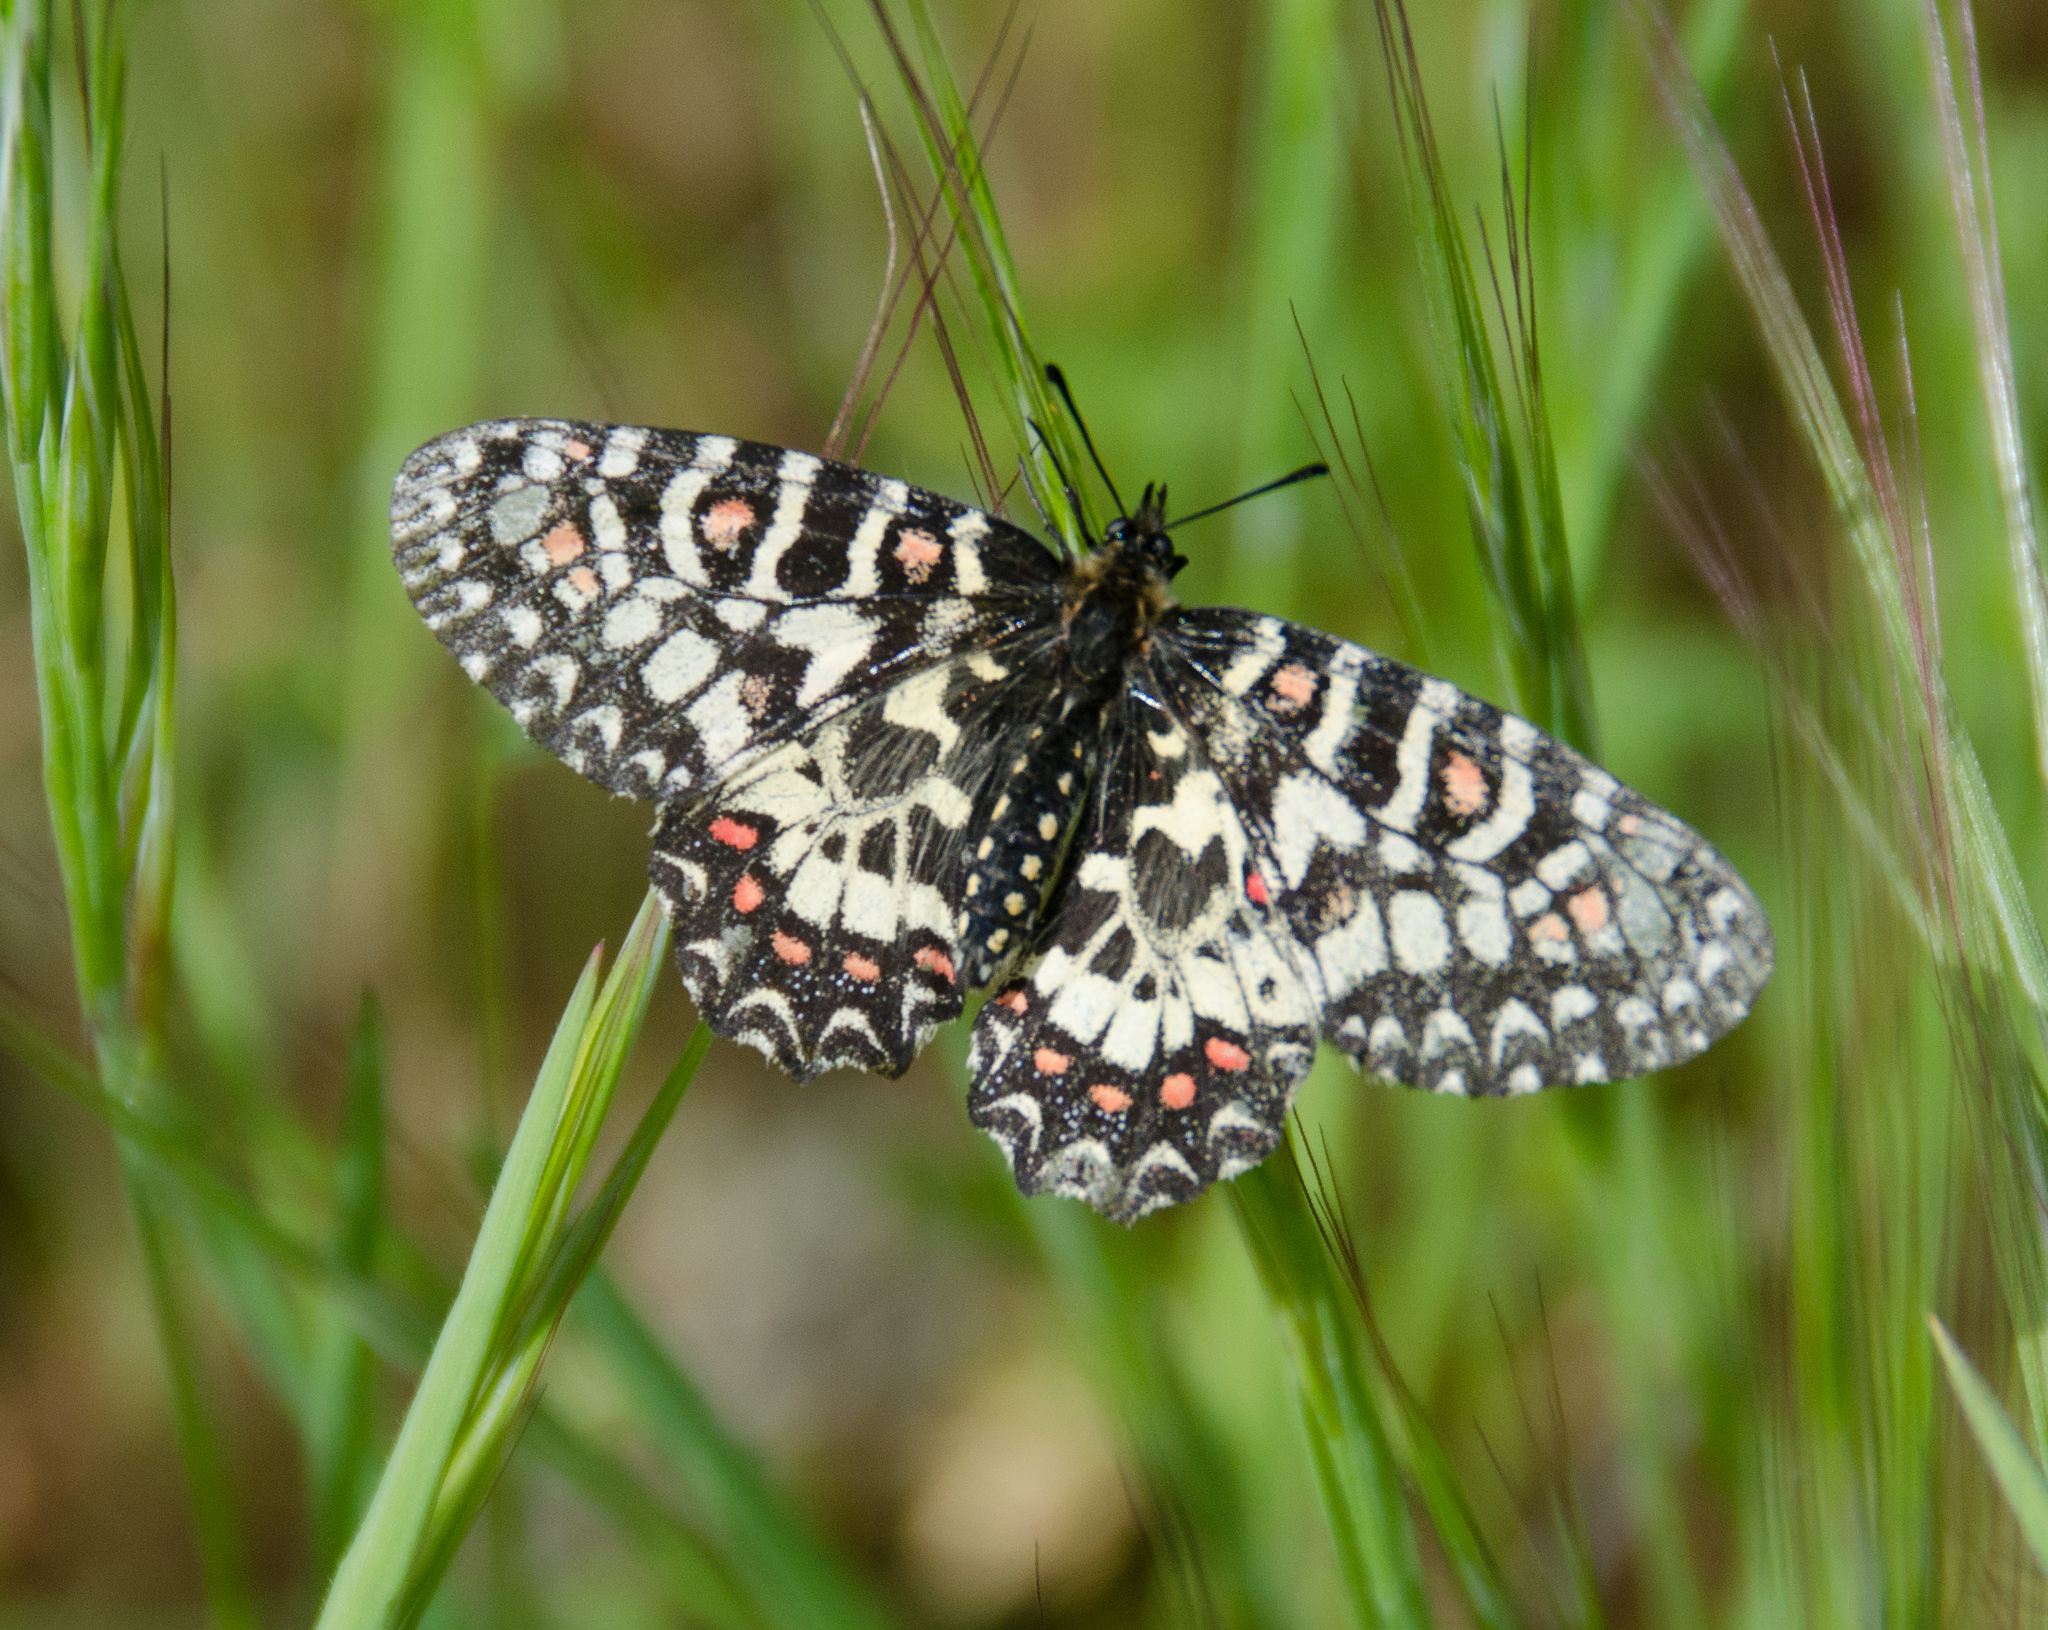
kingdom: Animalia
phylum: Arthropoda
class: Insecta
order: Lepidoptera
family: Papilionidae
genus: Zerynthia
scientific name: Zerynthia rumina
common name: Spanish festoon
